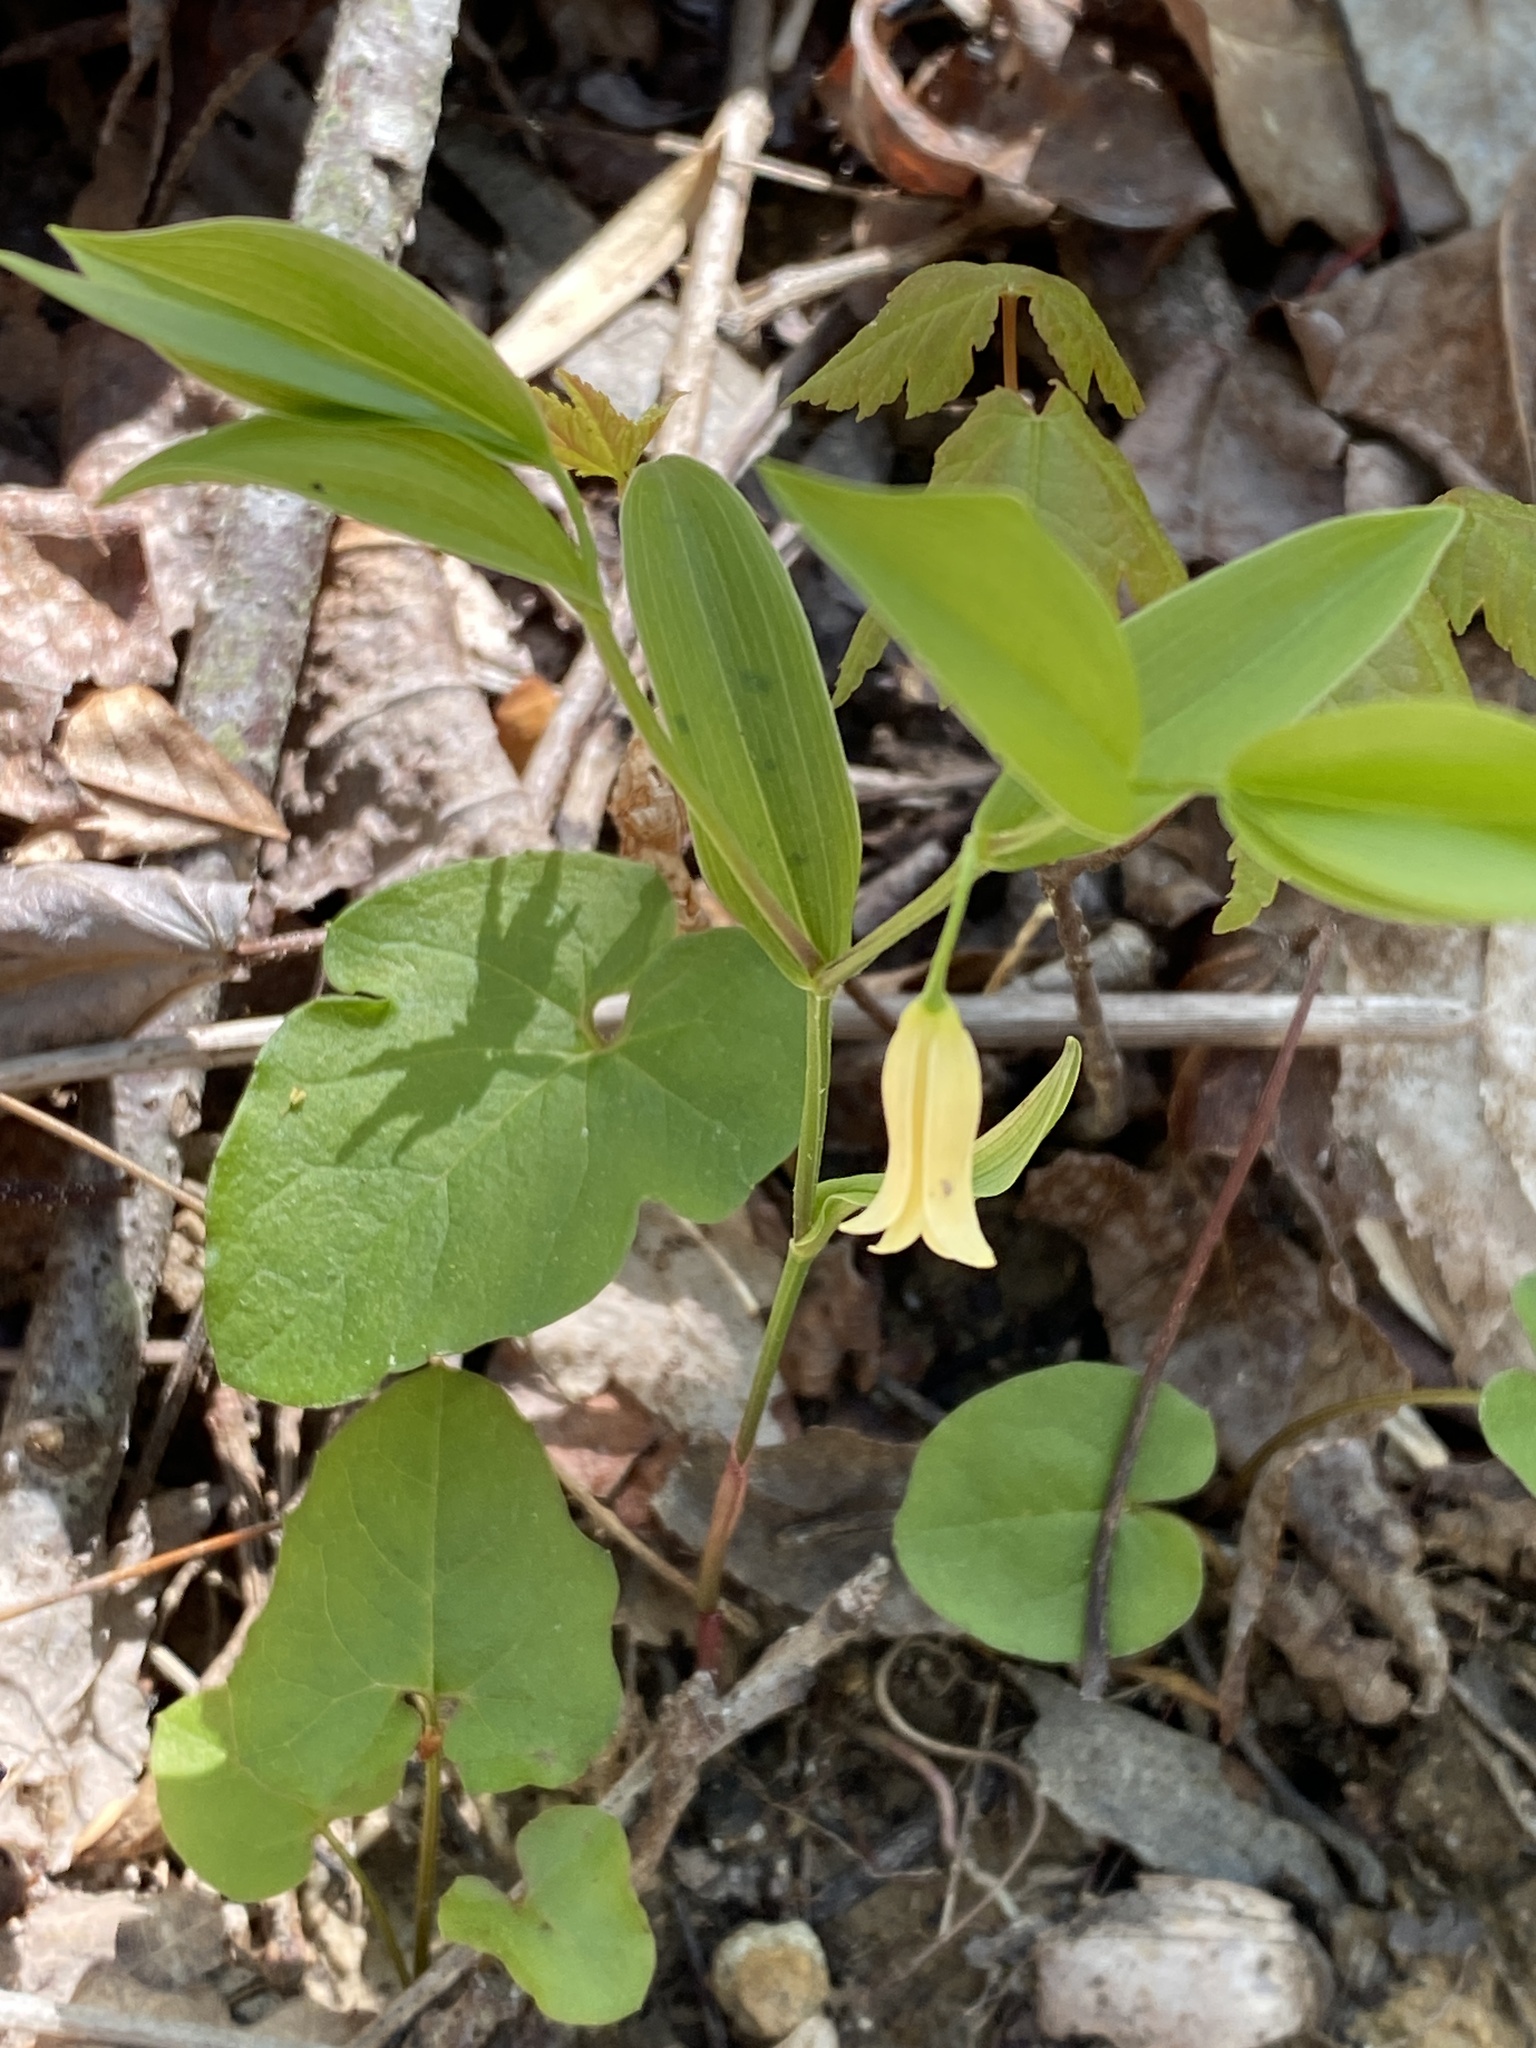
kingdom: Plantae
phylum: Tracheophyta
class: Liliopsida
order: Liliales
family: Colchicaceae
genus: Uvularia
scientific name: Uvularia puberula
